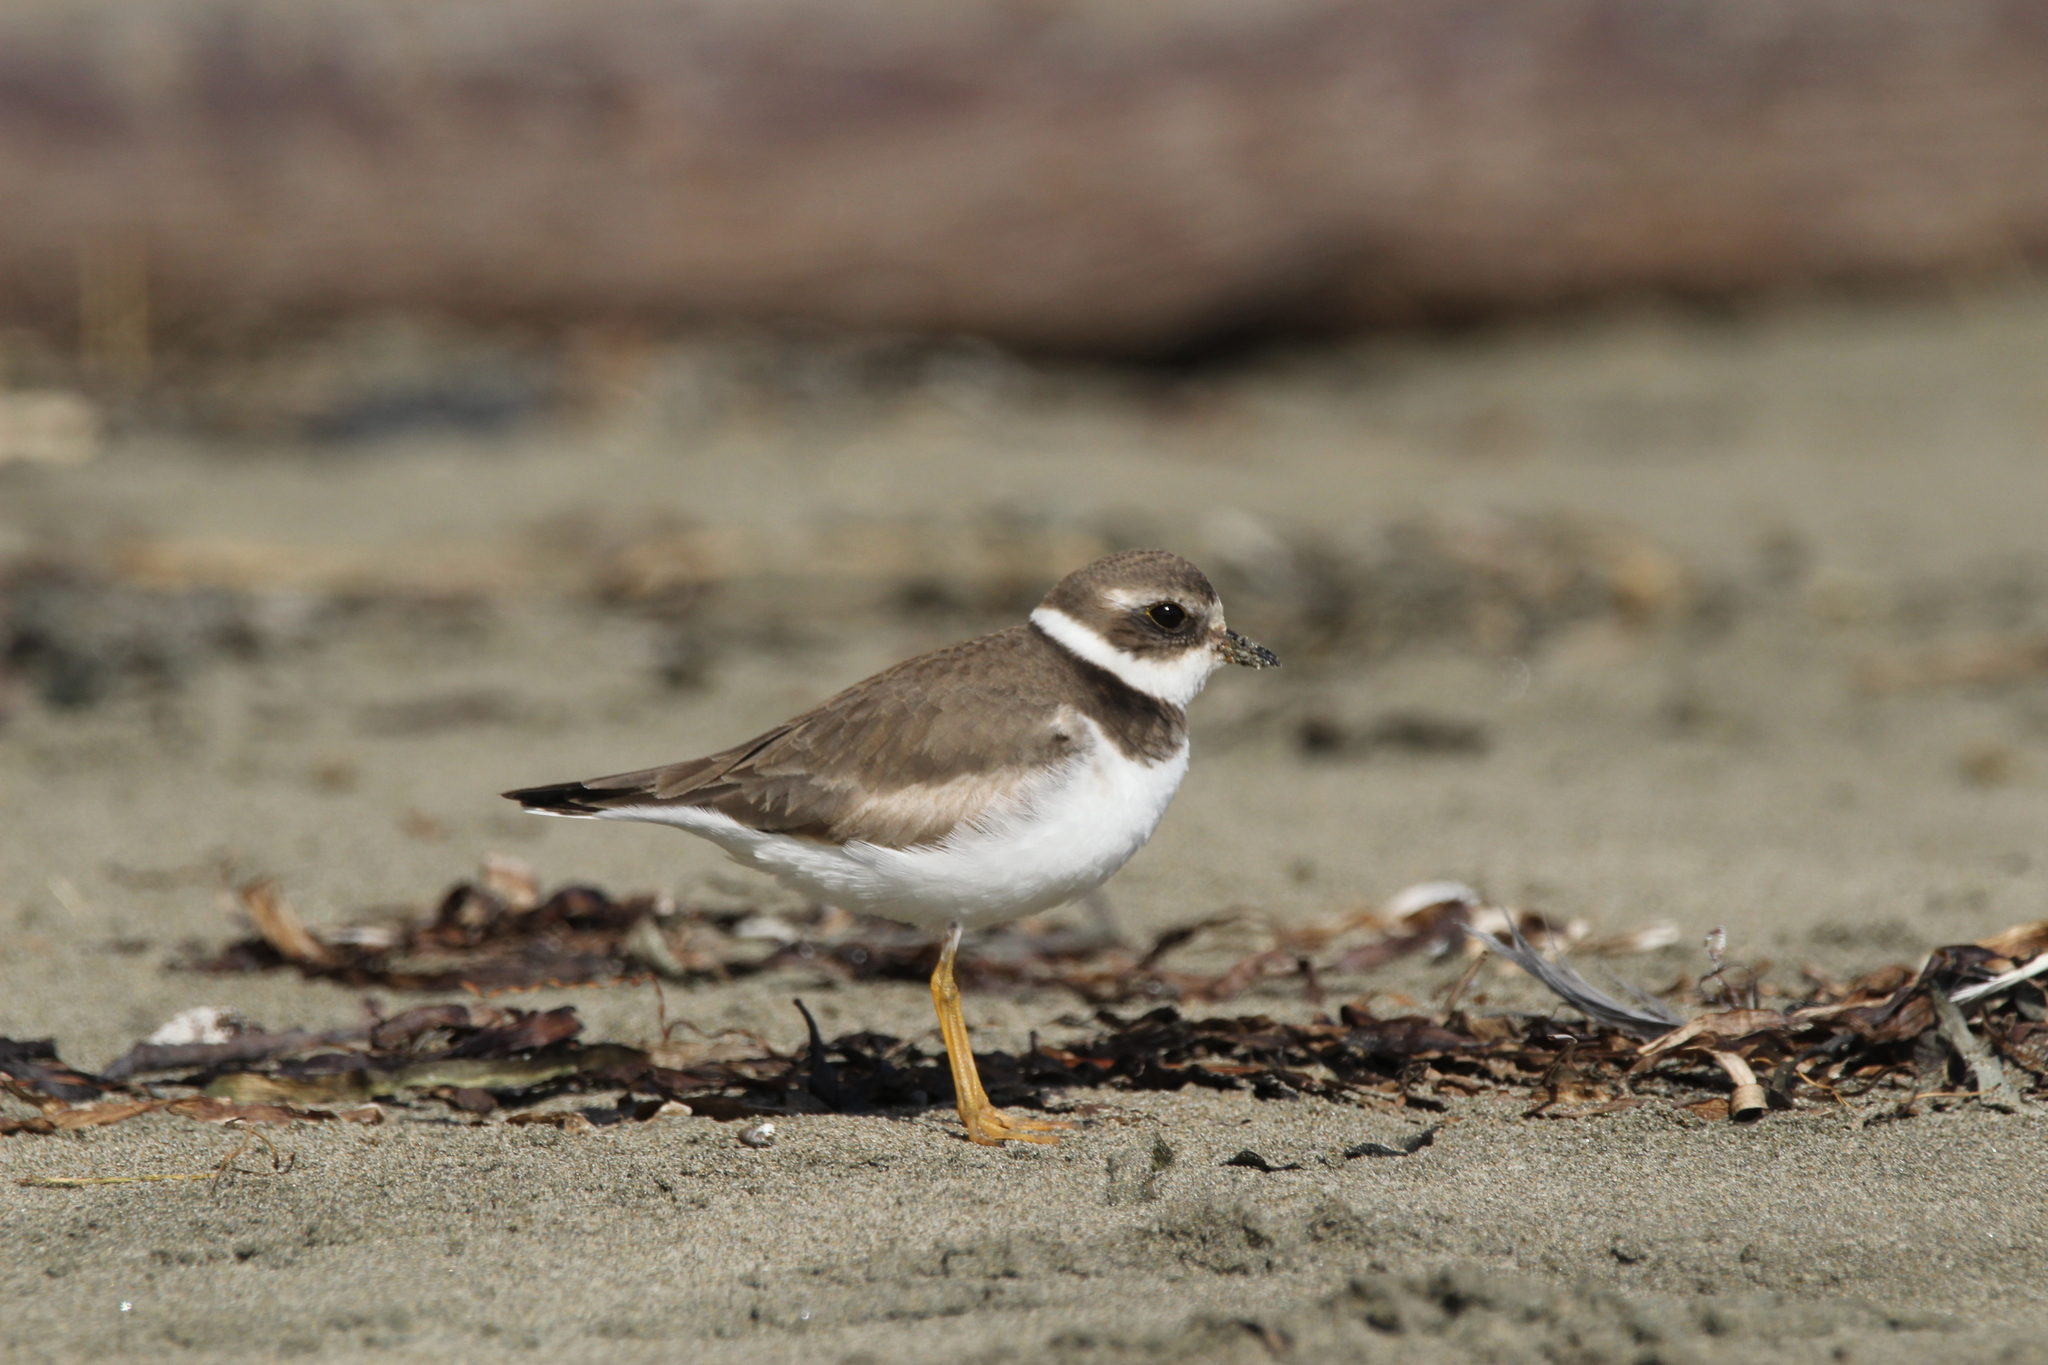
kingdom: Animalia
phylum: Chordata
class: Aves
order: Charadriiformes
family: Charadriidae
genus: Charadrius
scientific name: Charadrius semipalmatus
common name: Semipalmated plover
